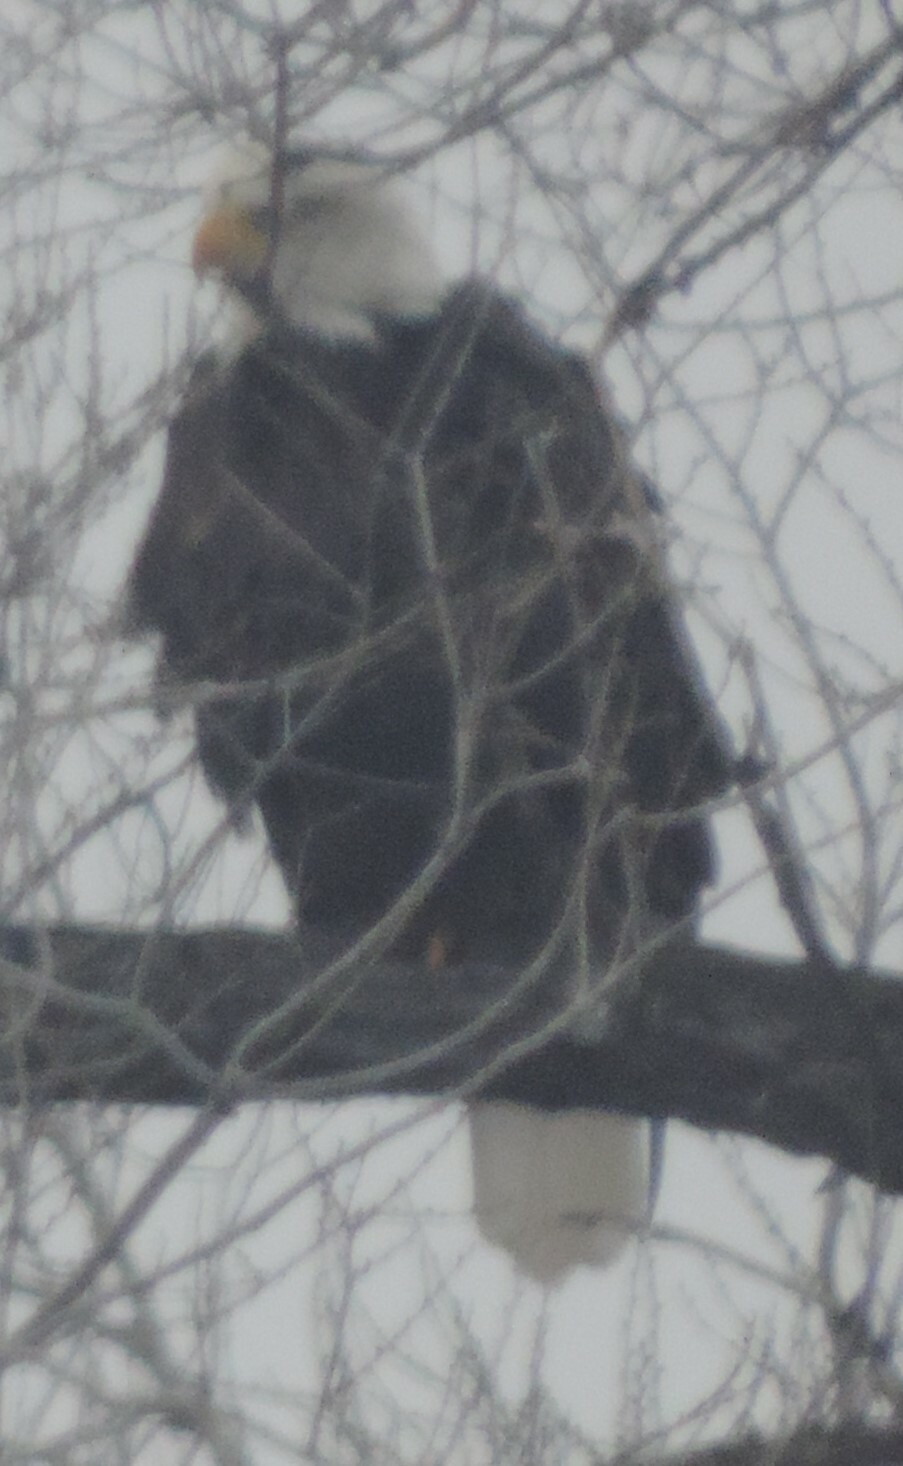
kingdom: Animalia
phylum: Chordata
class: Aves
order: Accipitriformes
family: Accipitridae
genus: Haliaeetus
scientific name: Haliaeetus leucocephalus
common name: Bald eagle
